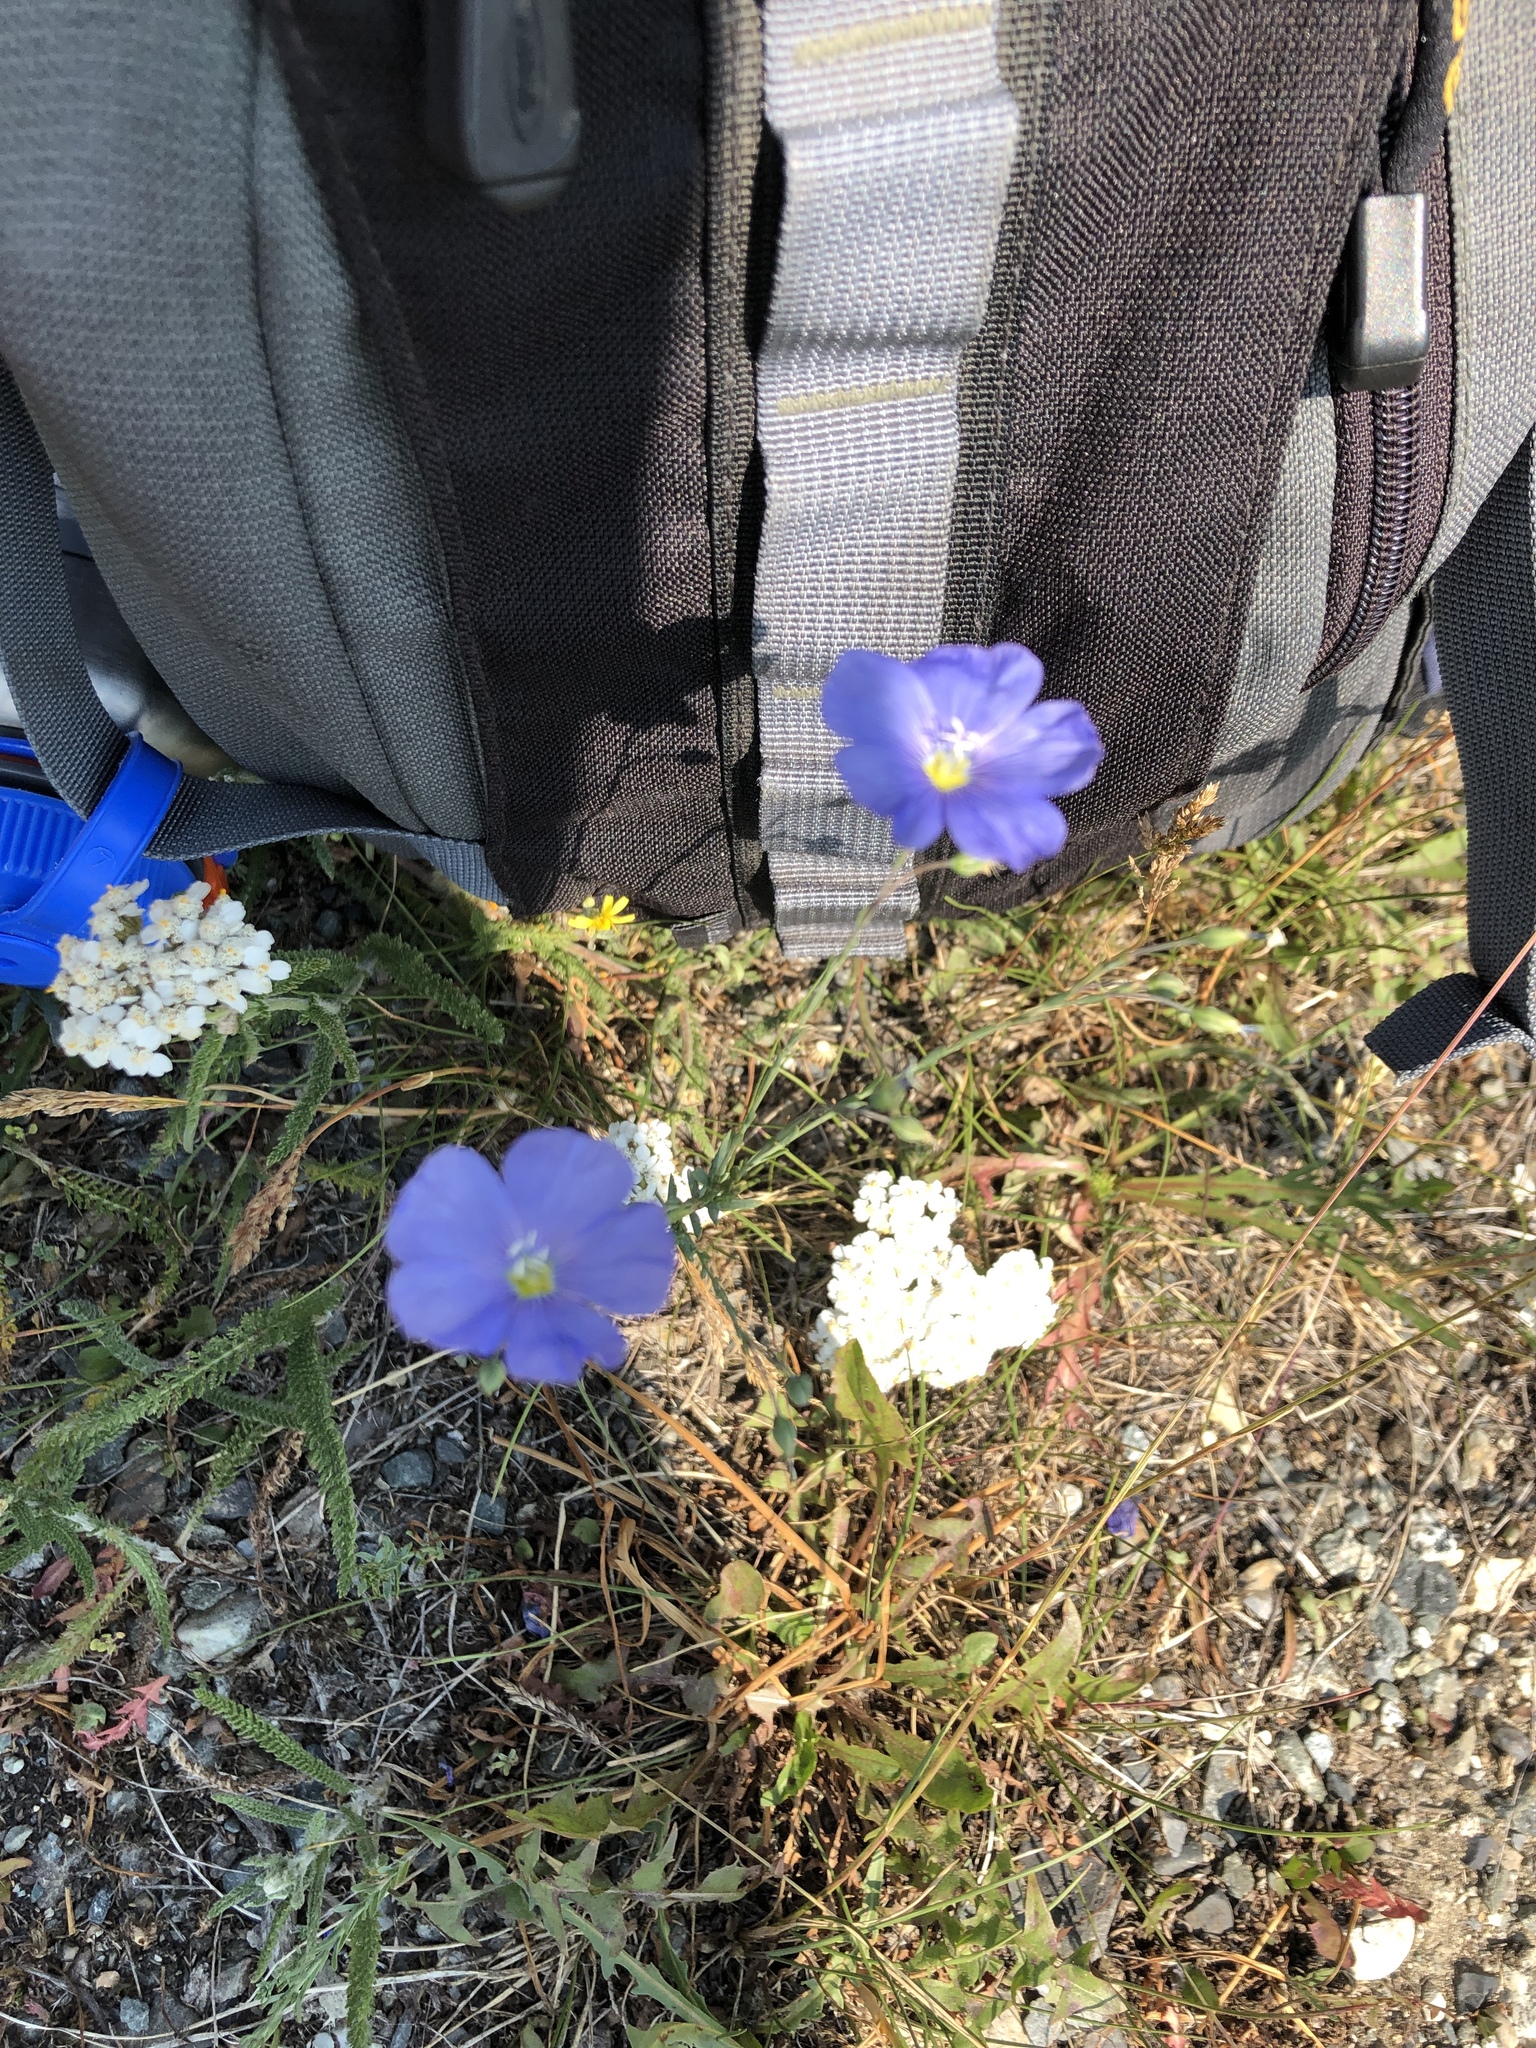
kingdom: Plantae
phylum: Tracheophyta
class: Magnoliopsida
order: Malpighiales
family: Linaceae
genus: Linum
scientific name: Linum lewisii
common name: Prairie flax
